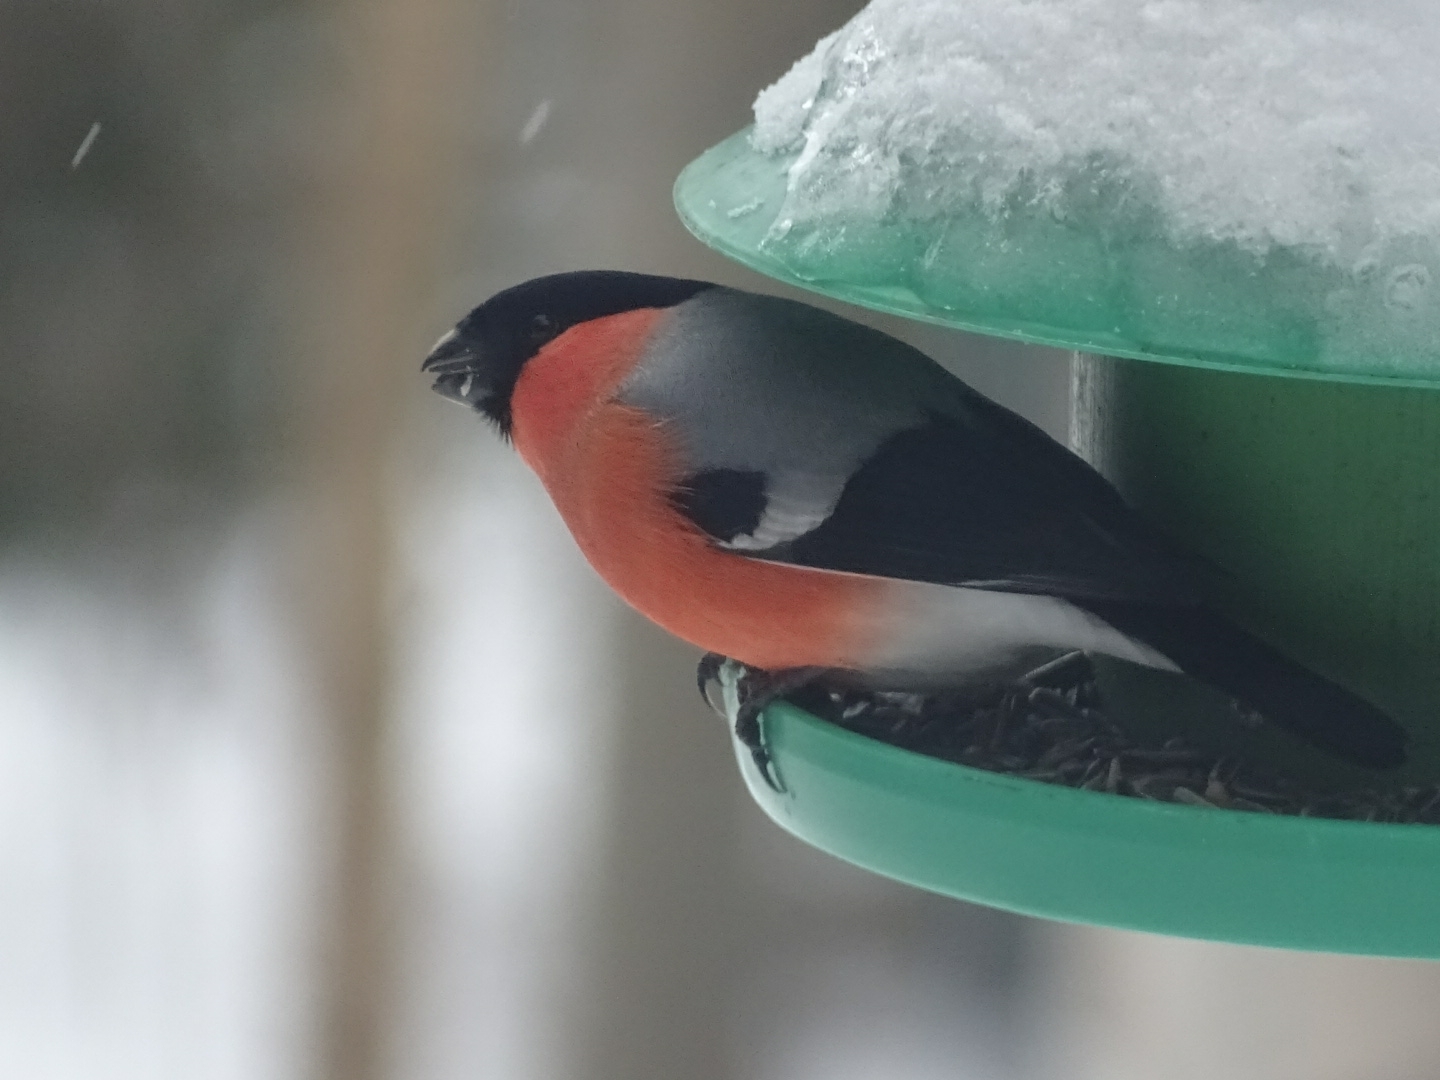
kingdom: Animalia
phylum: Chordata
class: Aves
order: Passeriformes
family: Fringillidae
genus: Pyrrhula
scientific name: Pyrrhula pyrrhula
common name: Eurasian bullfinch
